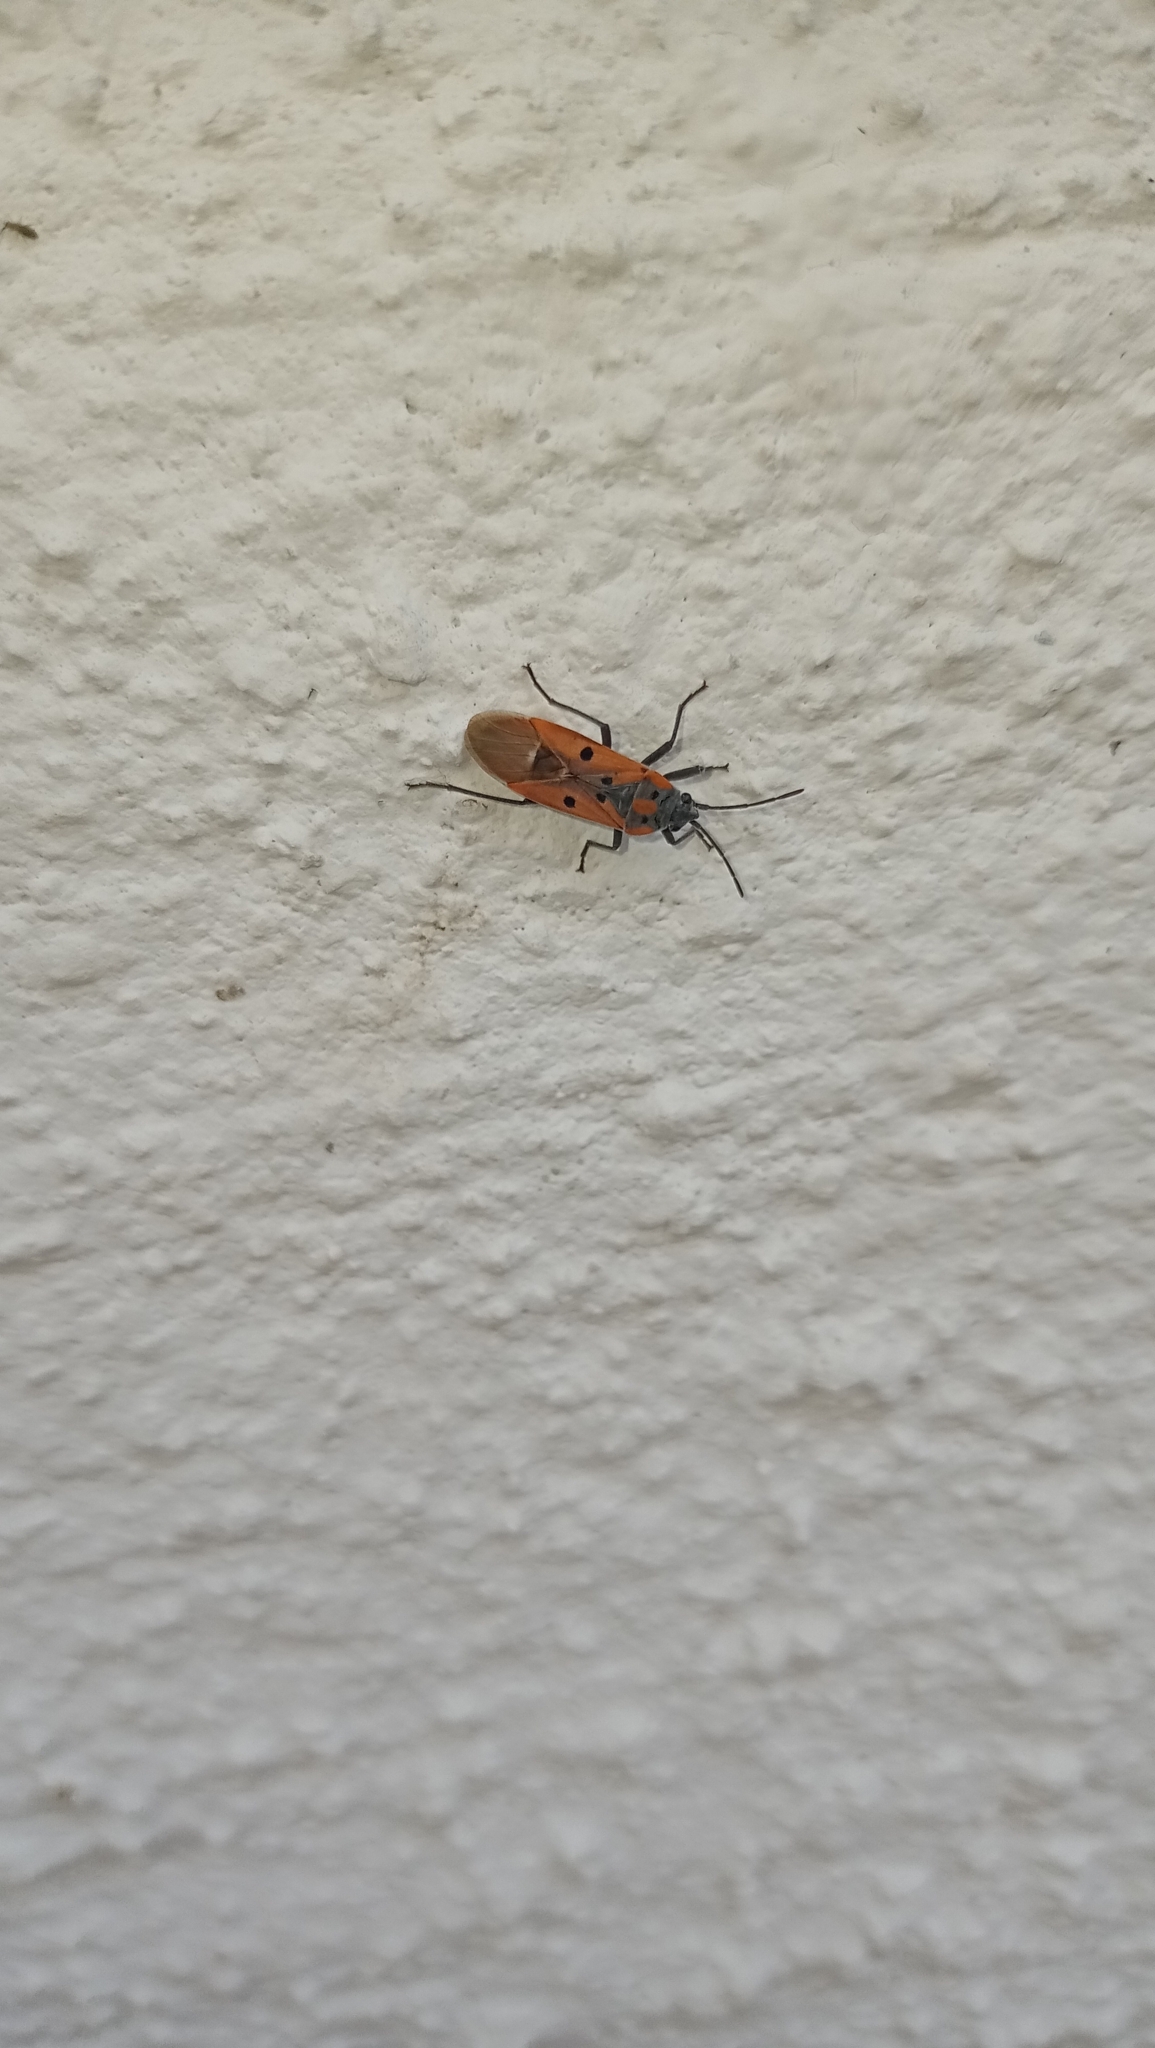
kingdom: Animalia
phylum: Arthropoda
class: Insecta
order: Hemiptera
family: Lygaeidae
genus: Lygaeus
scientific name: Lygaeus creticus
